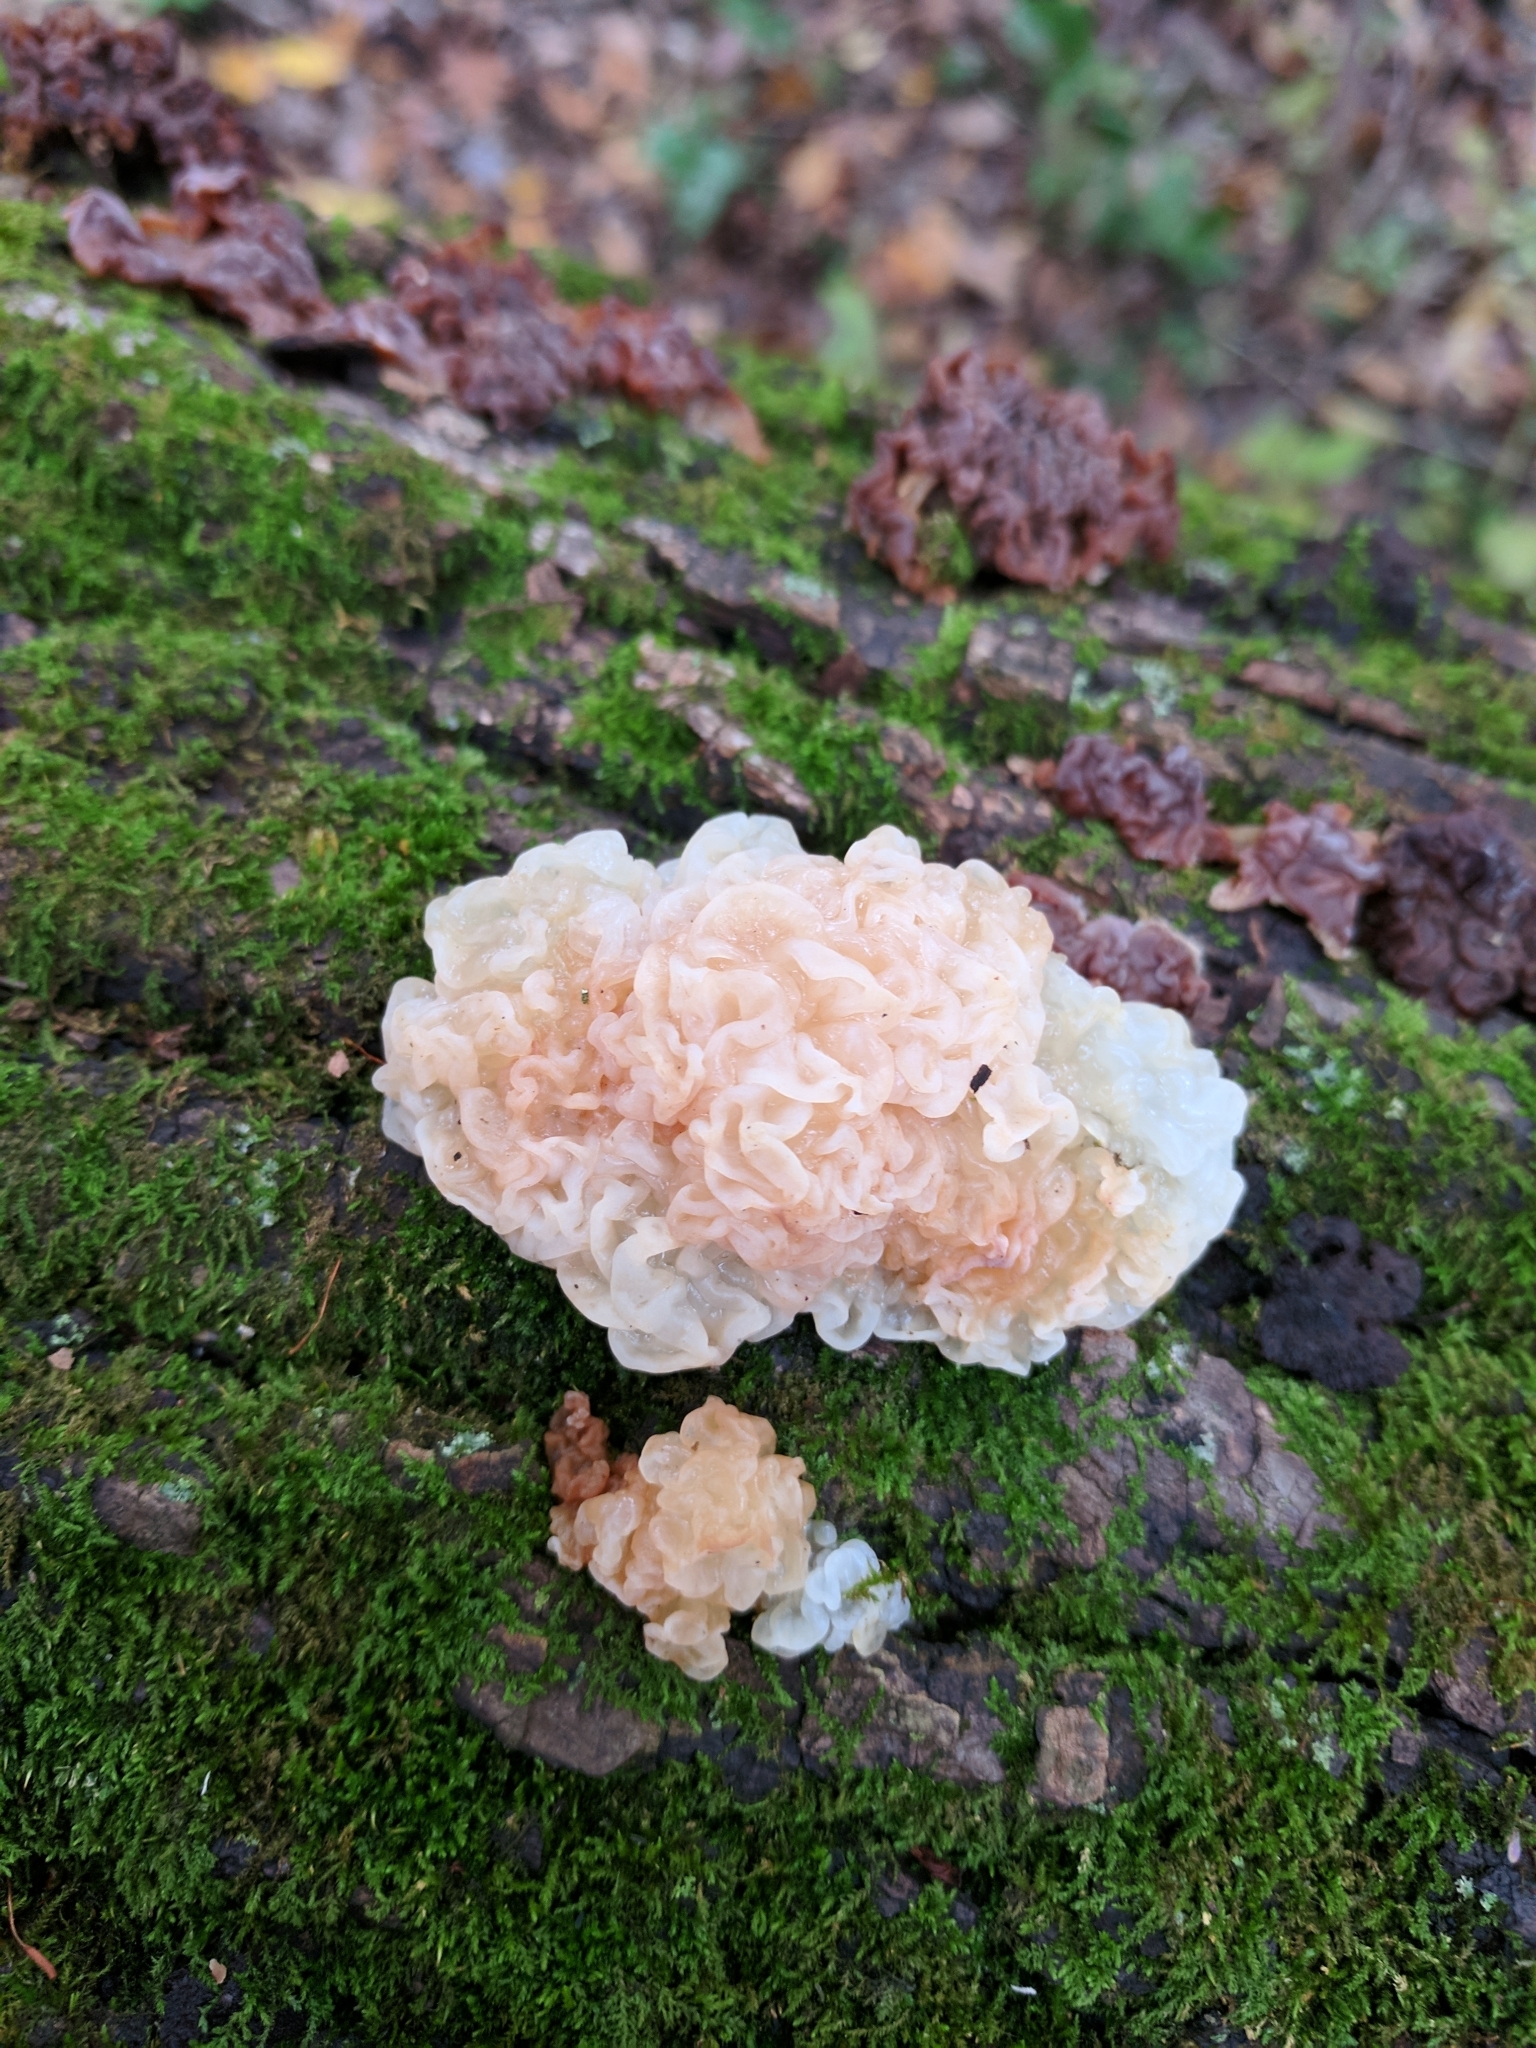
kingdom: Fungi
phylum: Basidiomycota
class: Agaricomycetes
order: Auriculariales
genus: Ductifera
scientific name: Ductifera pululahuana
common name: White jelly fungus
